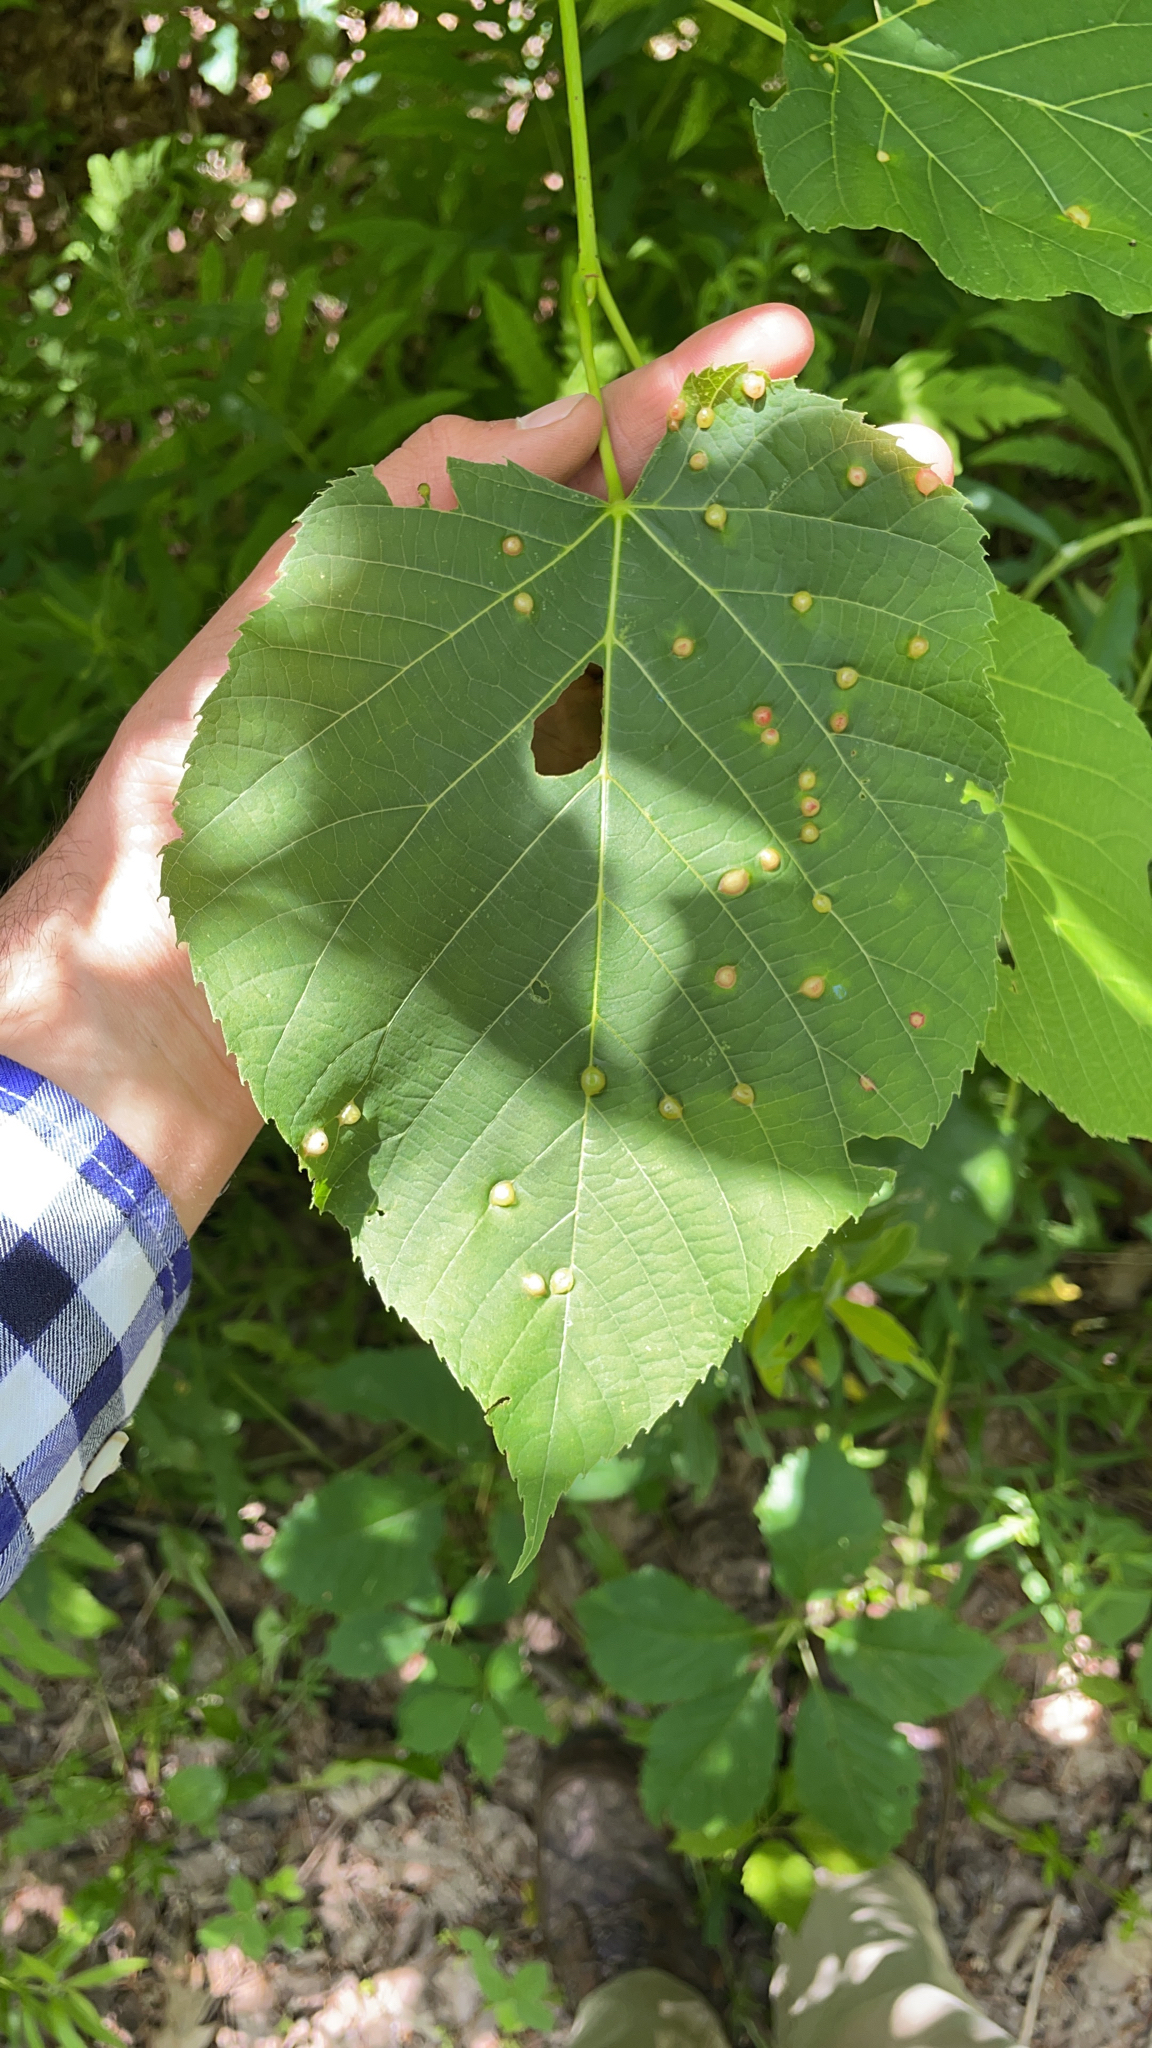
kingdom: Plantae
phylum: Tracheophyta
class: Magnoliopsida
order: Malvales
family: Malvaceae
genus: Tilia
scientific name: Tilia americana
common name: Basswood
